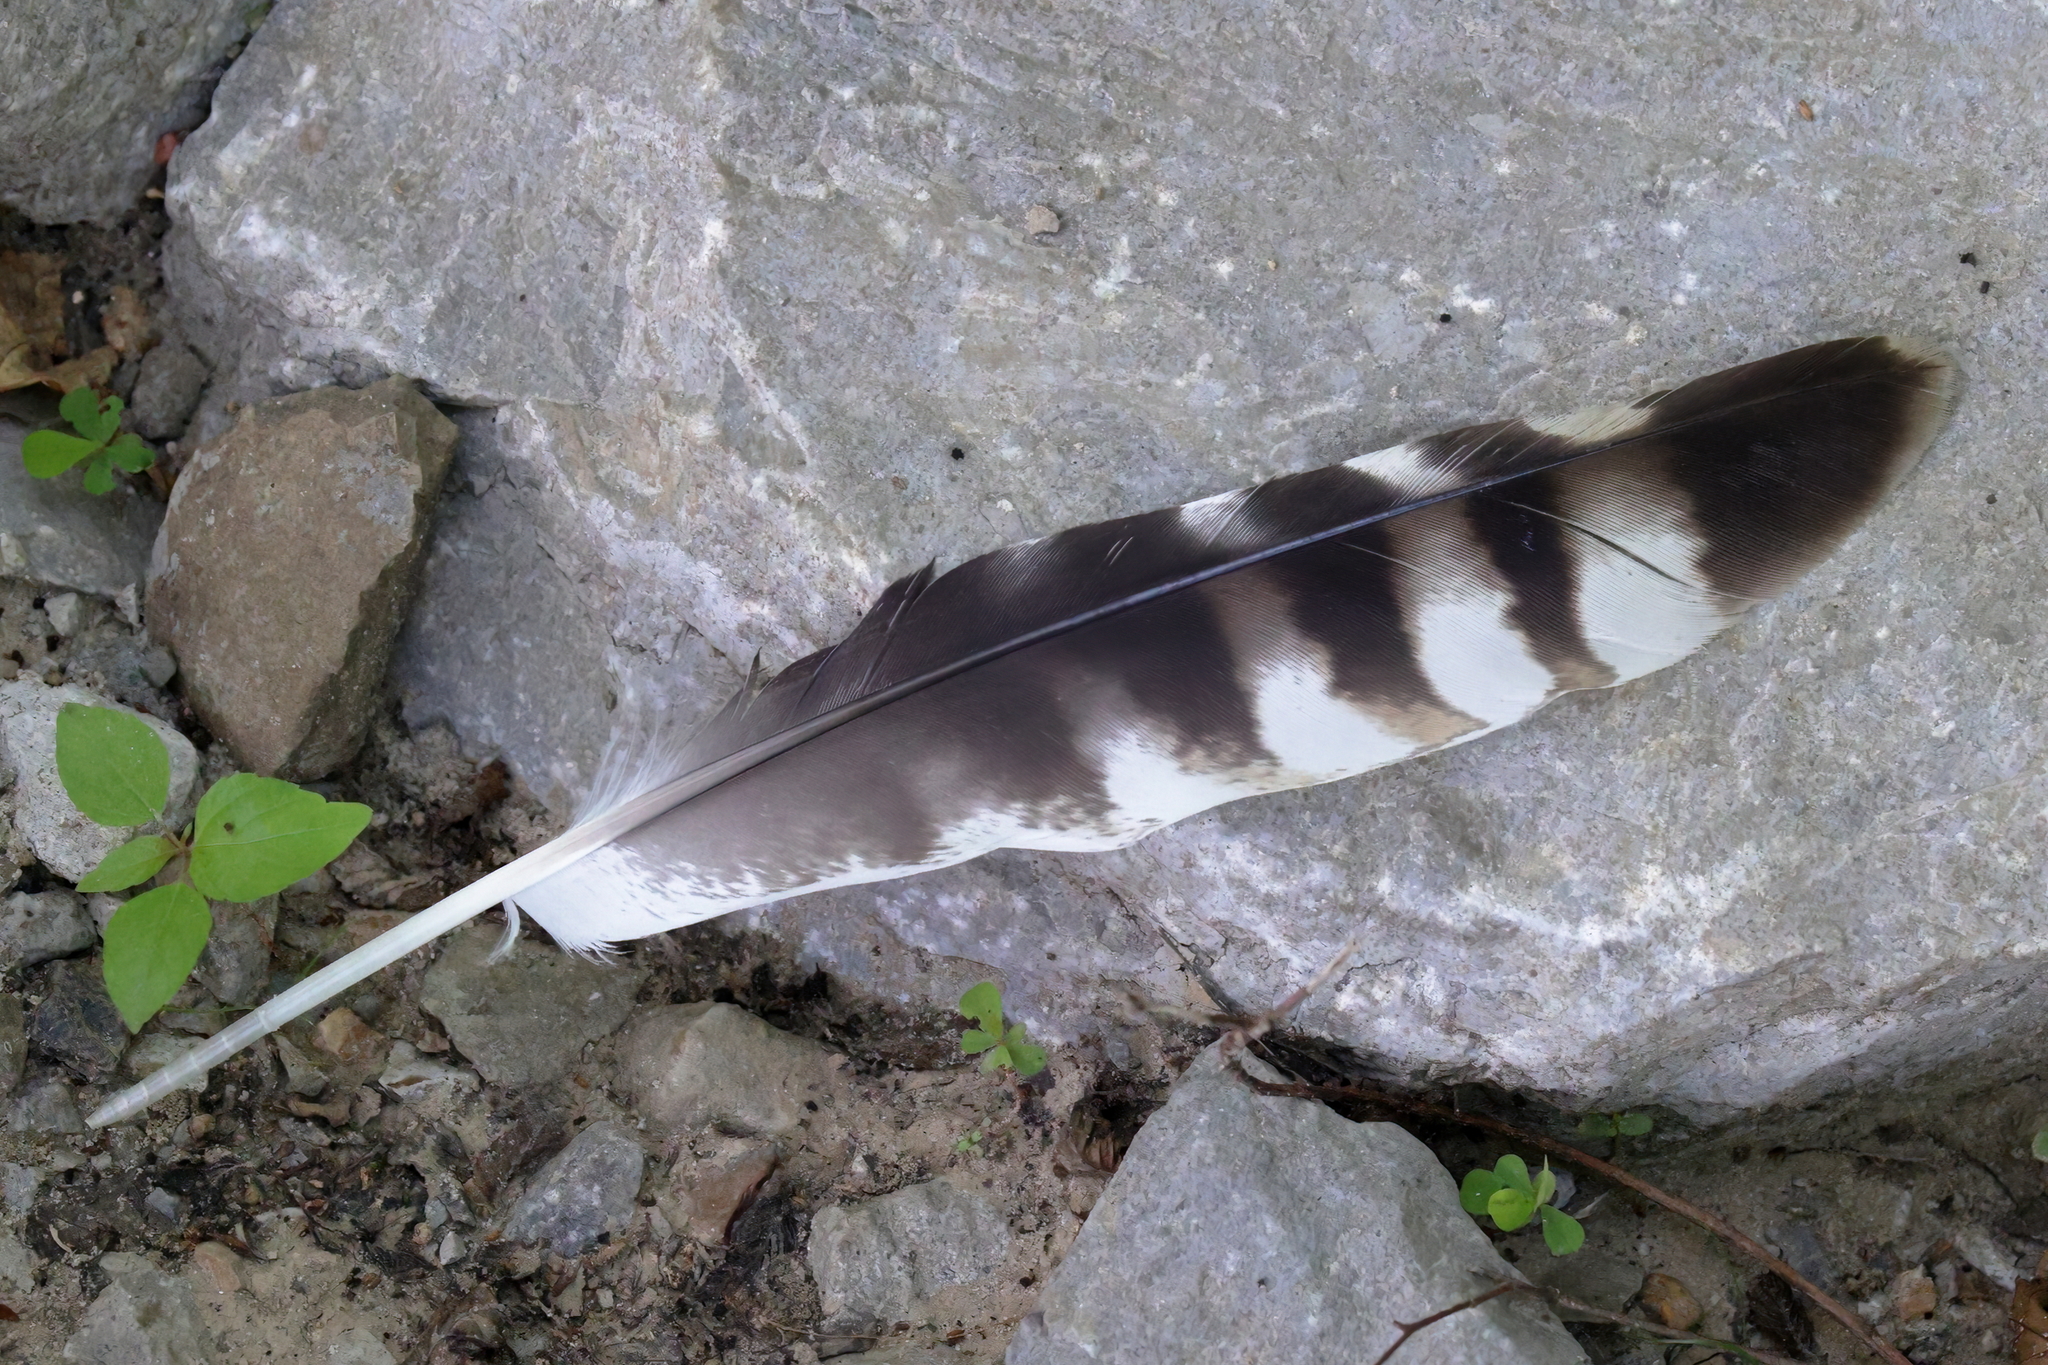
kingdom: Animalia
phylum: Chordata
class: Aves
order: Accipitriformes
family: Accipitridae
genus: Buteo
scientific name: Buteo lineatus
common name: Red-shouldered hawk
